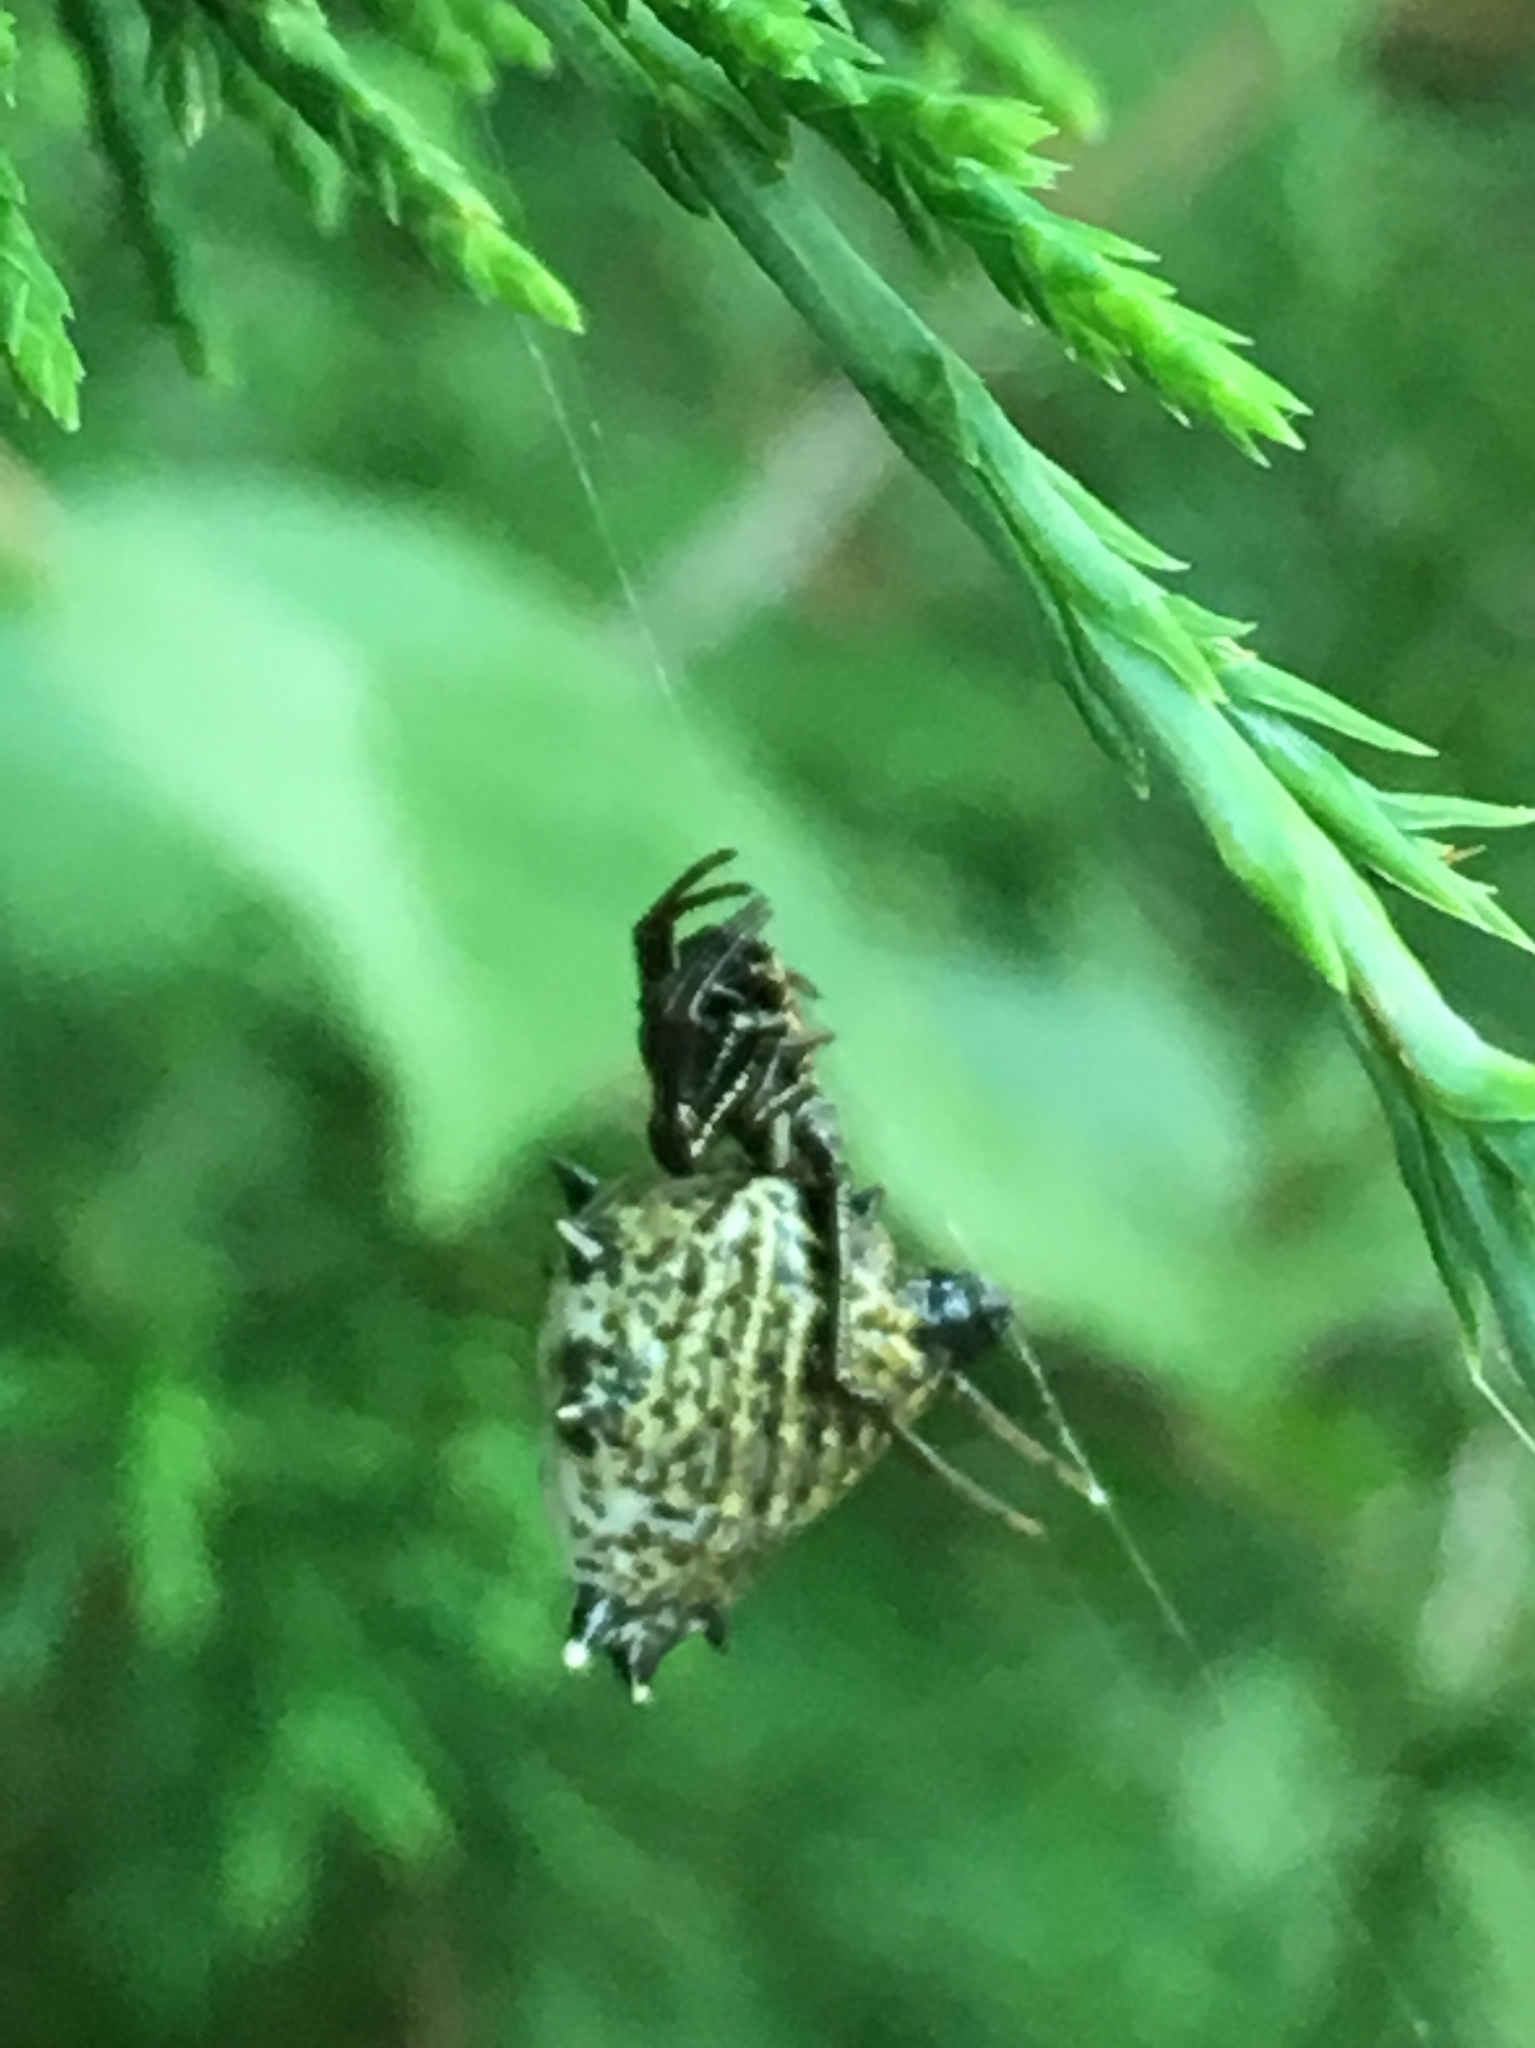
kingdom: Animalia
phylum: Arthropoda
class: Arachnida
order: Araneae
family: Araneidae
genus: Micrathena
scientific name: Micrathena gracilis
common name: Orb weavers
